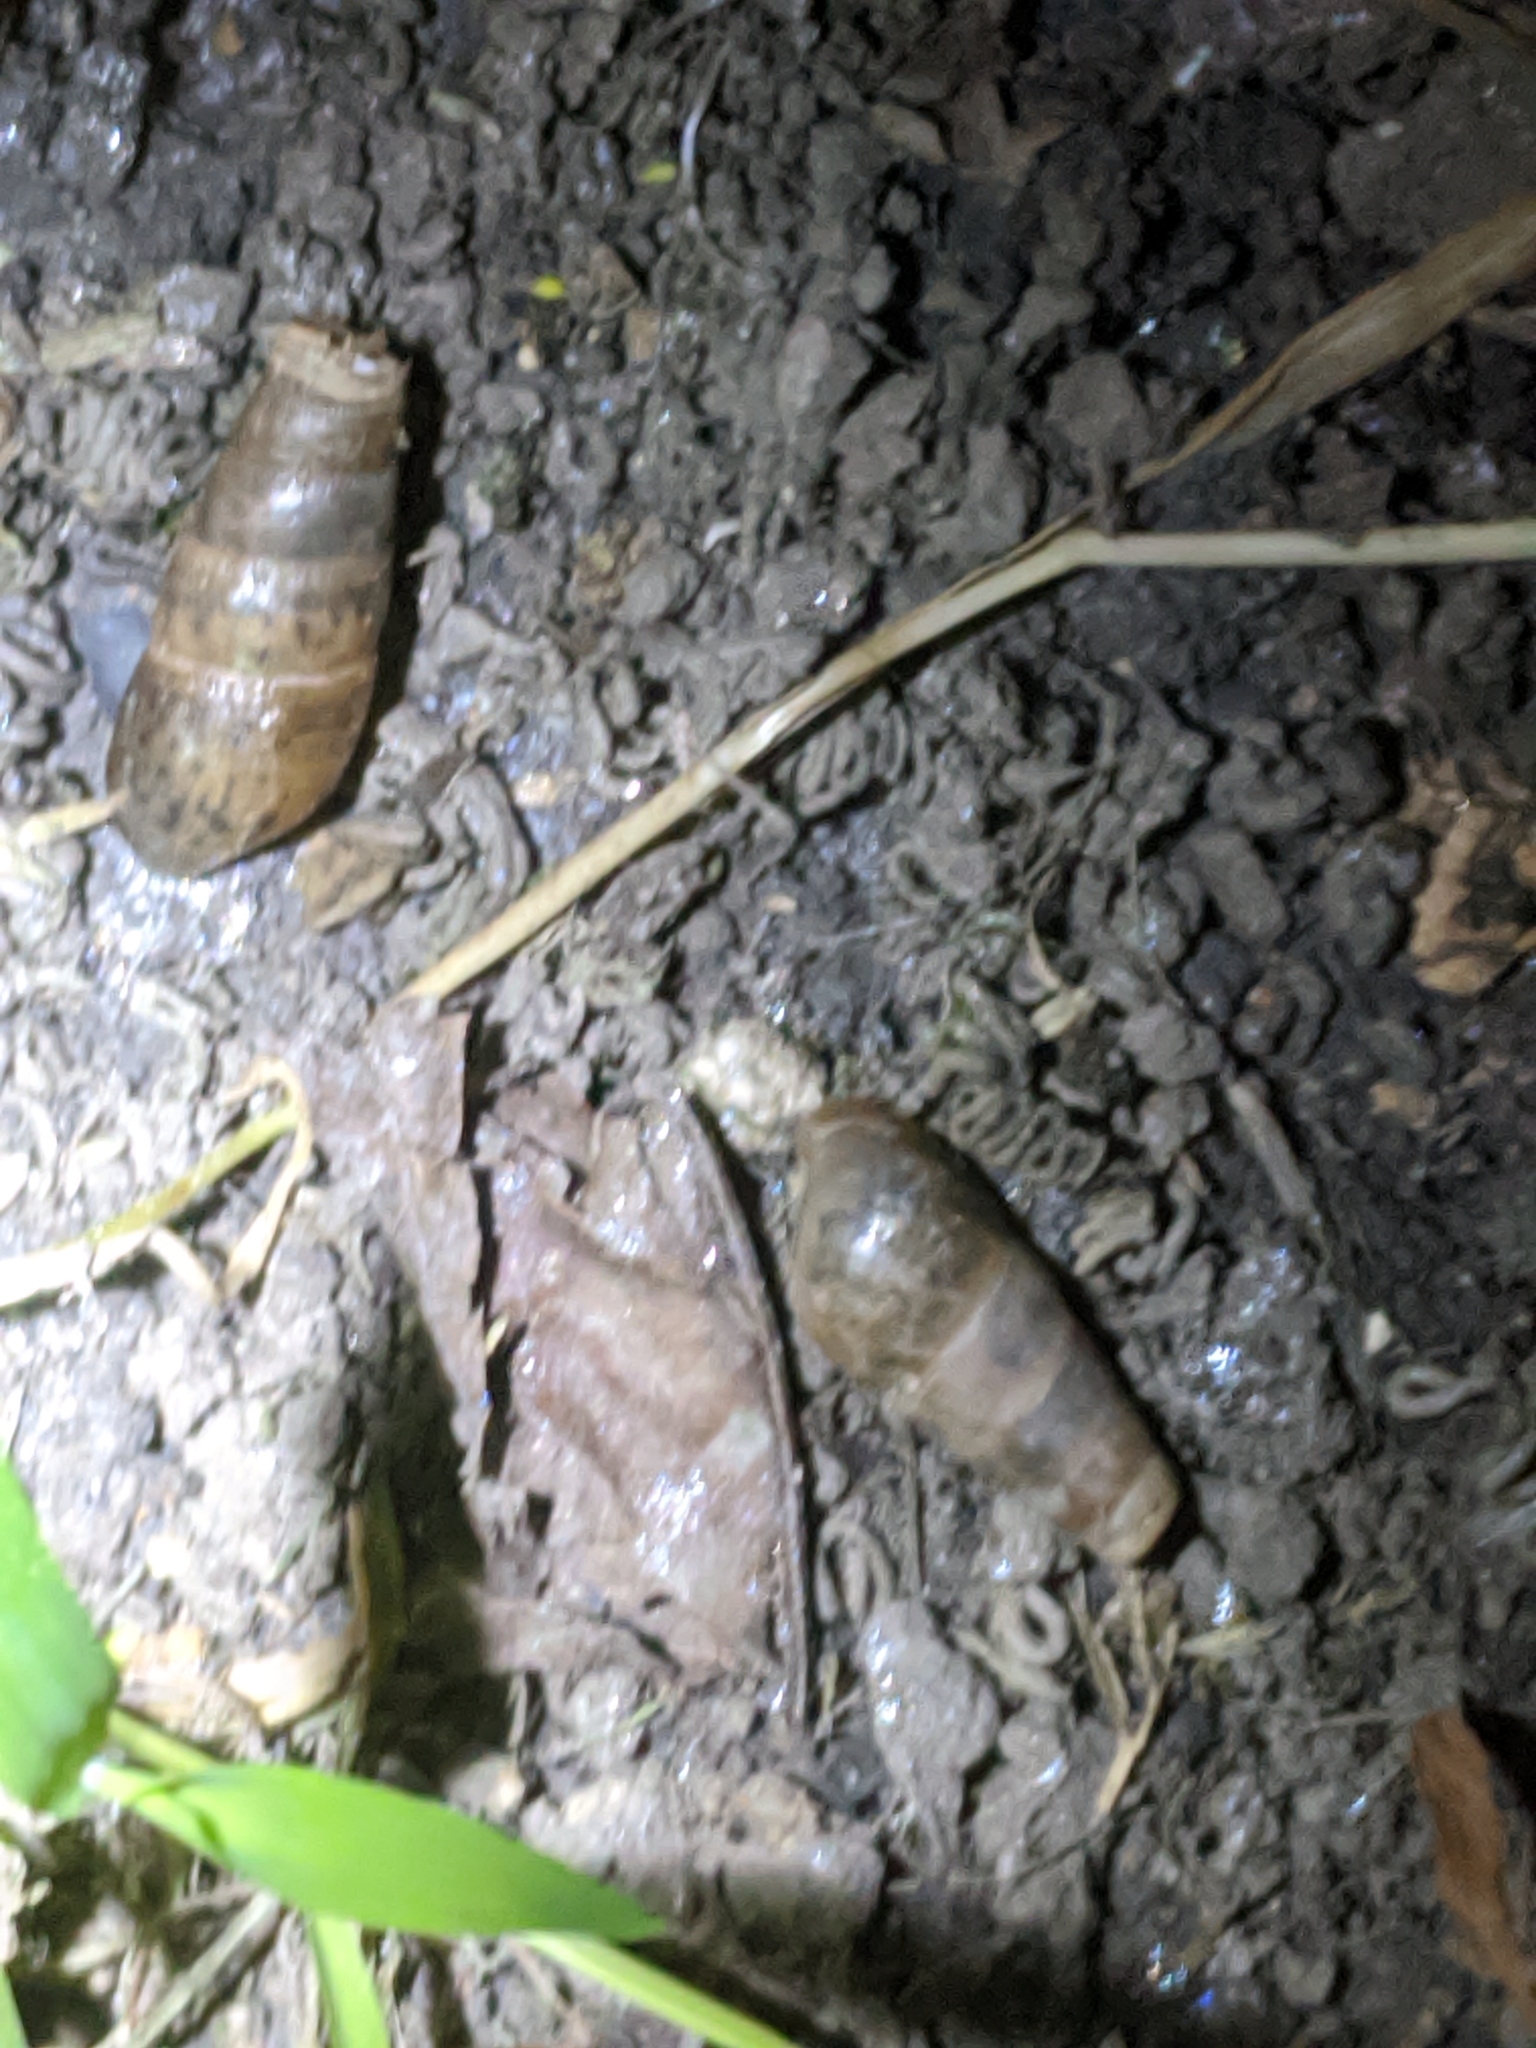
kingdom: Animalia
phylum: Mollusca
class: Gastropoda
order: Stylommatophora
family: Achatinidae
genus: Rumina
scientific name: Rumina decollata
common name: Decollate snail
